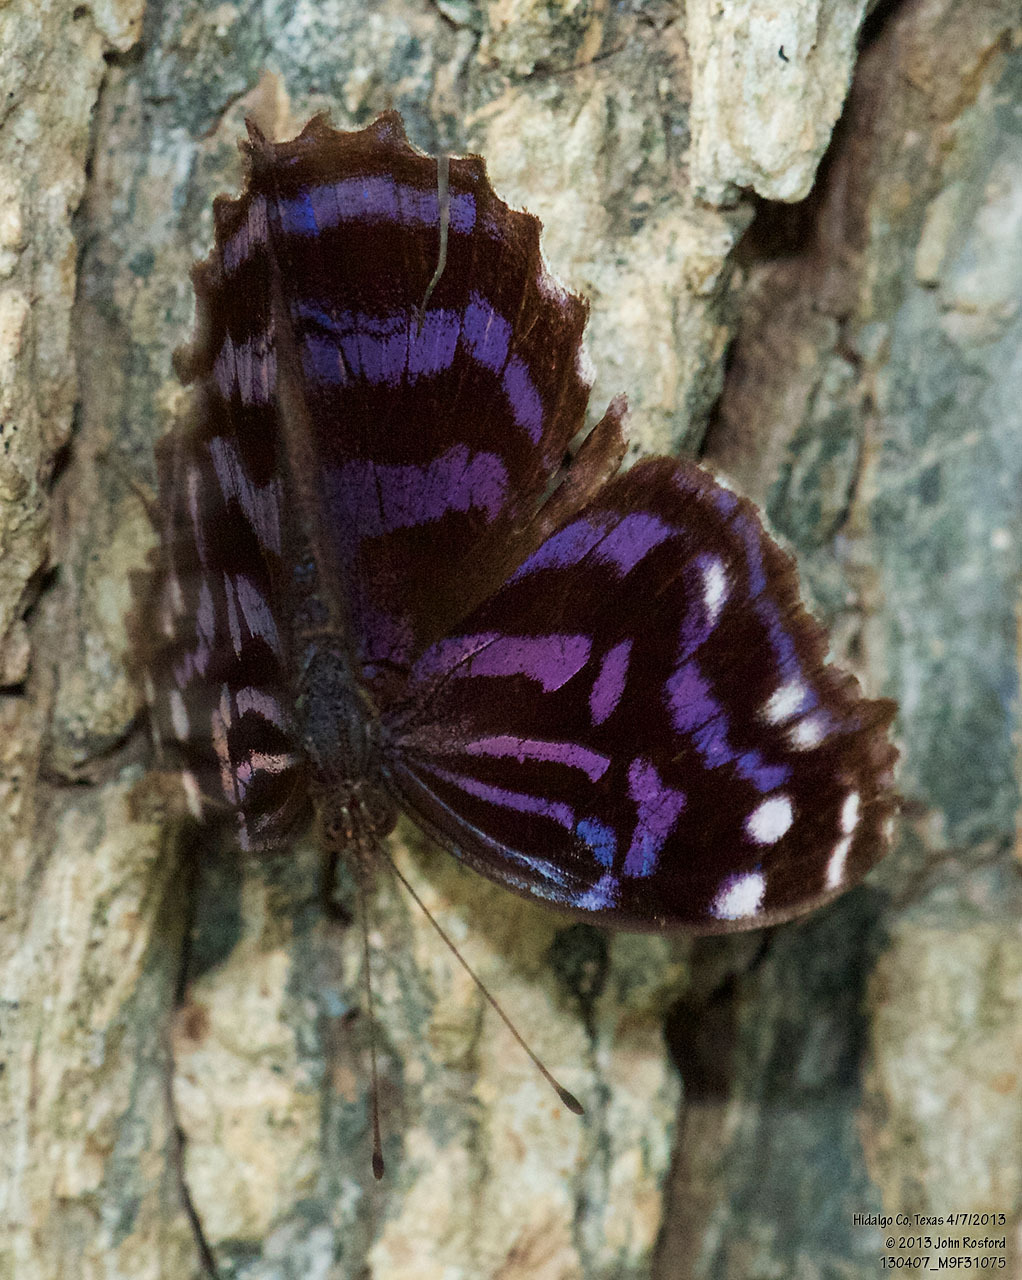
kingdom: Animalia
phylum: Arthropoda
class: Insecta
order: Lepidoptera
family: Nymphalidae
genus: Myscelia
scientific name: Myscelia ethusa
